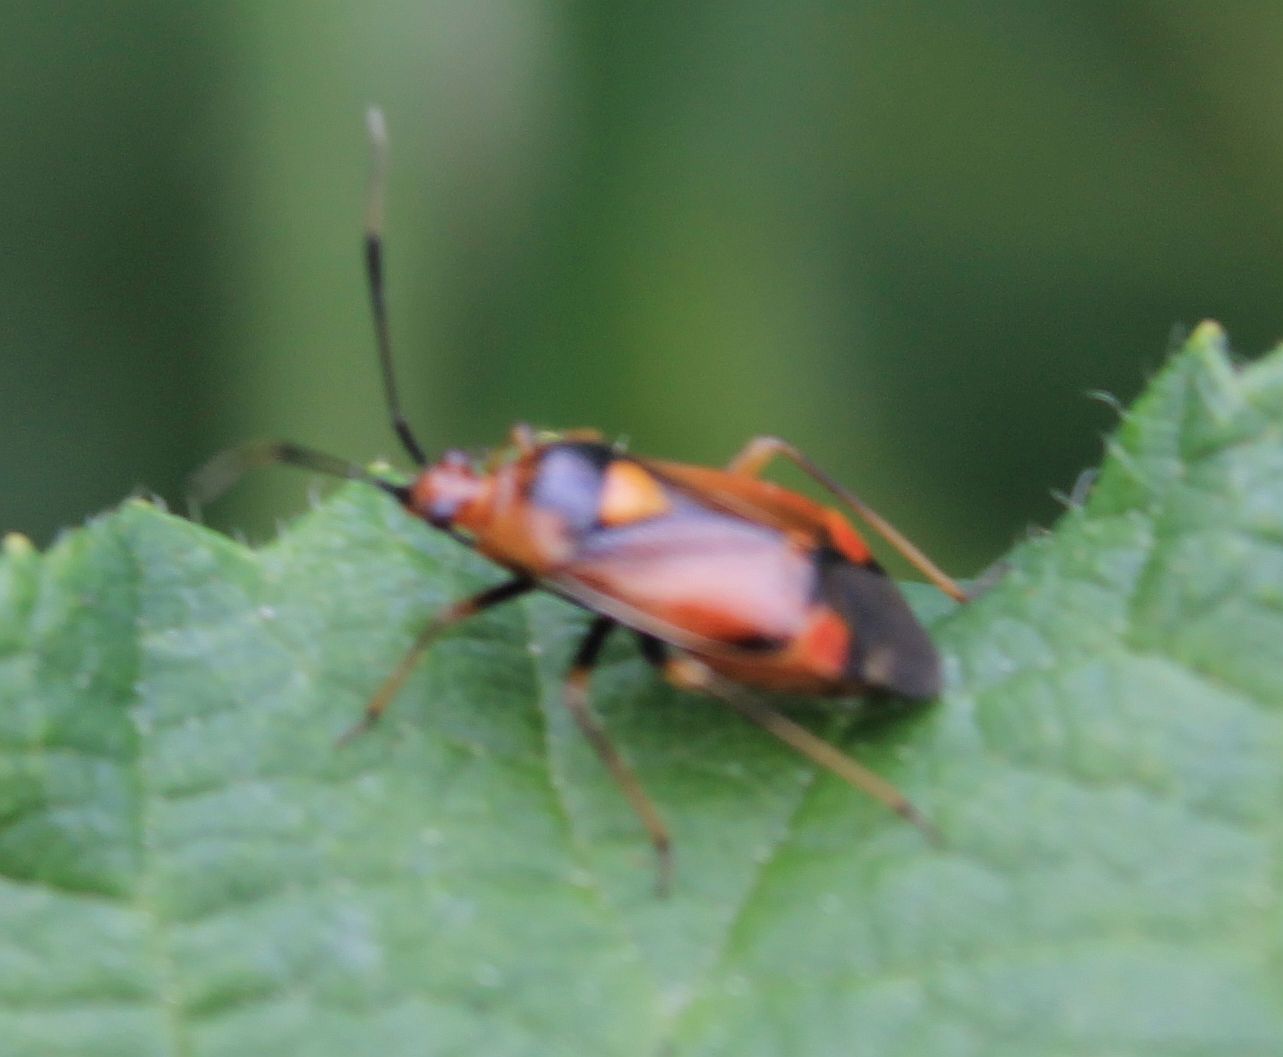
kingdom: Animalia
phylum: Arthropoda
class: Insecta
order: Hemiptera
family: Miridae
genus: Deraeocoris
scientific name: Deraeocoris ruber
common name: Plant bug
